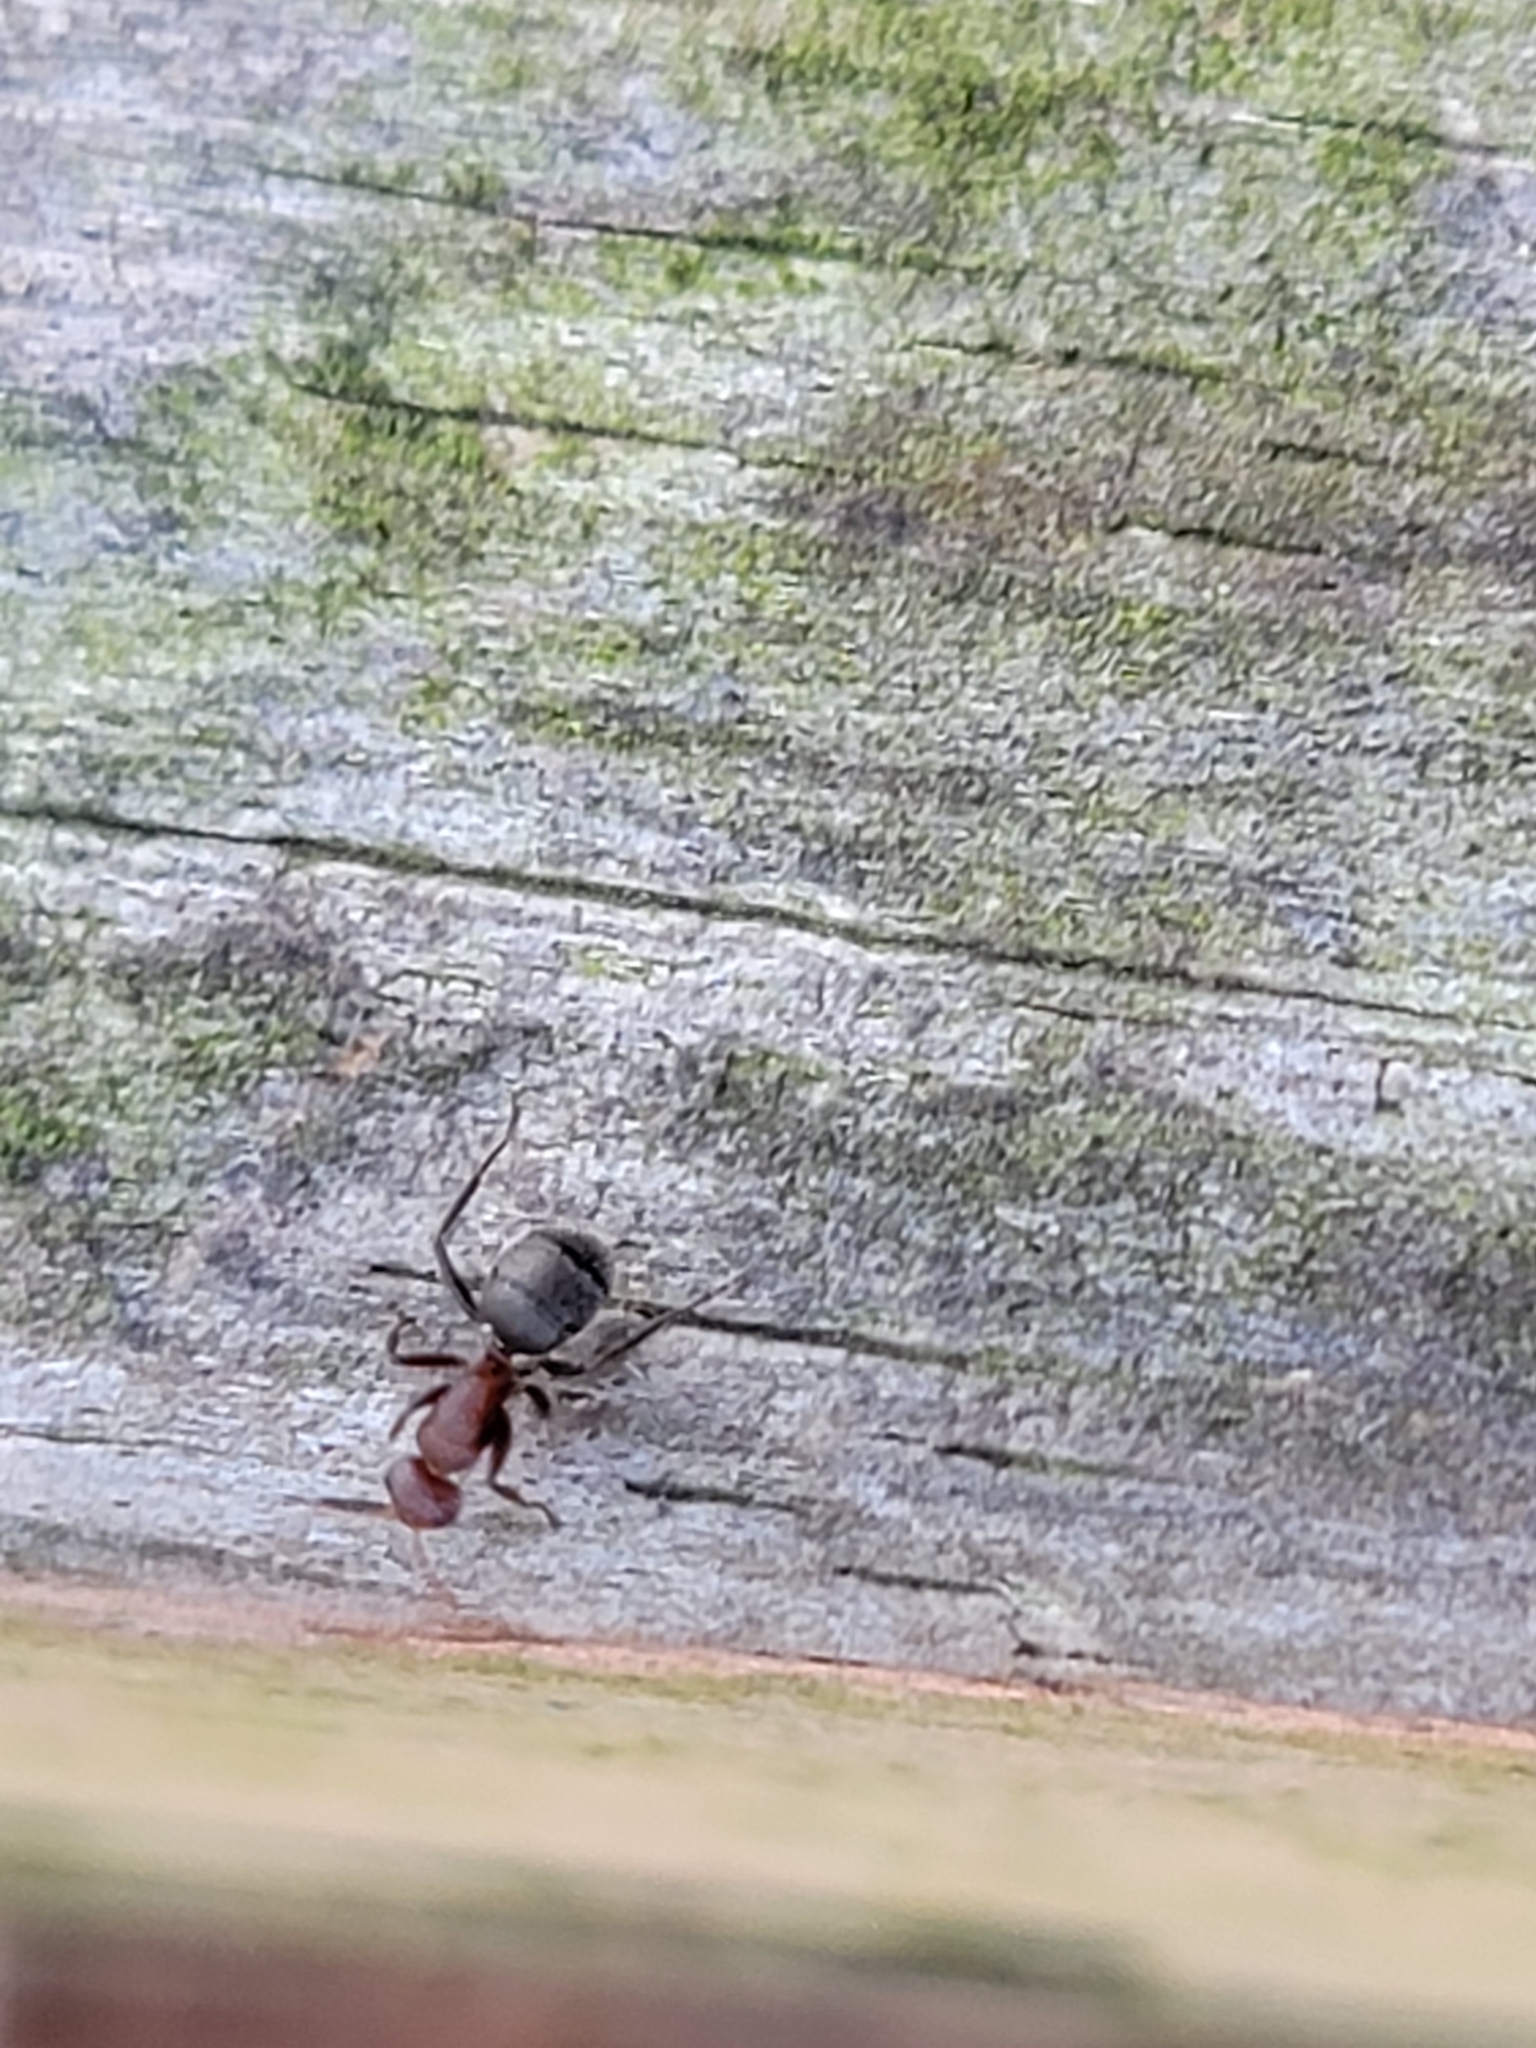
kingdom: Animalia
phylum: Arthropoda
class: Insecta
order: Hymenoptera
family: Formicidae
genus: Camponotus
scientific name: Camponotus planatus
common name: Compact carpenter ant
